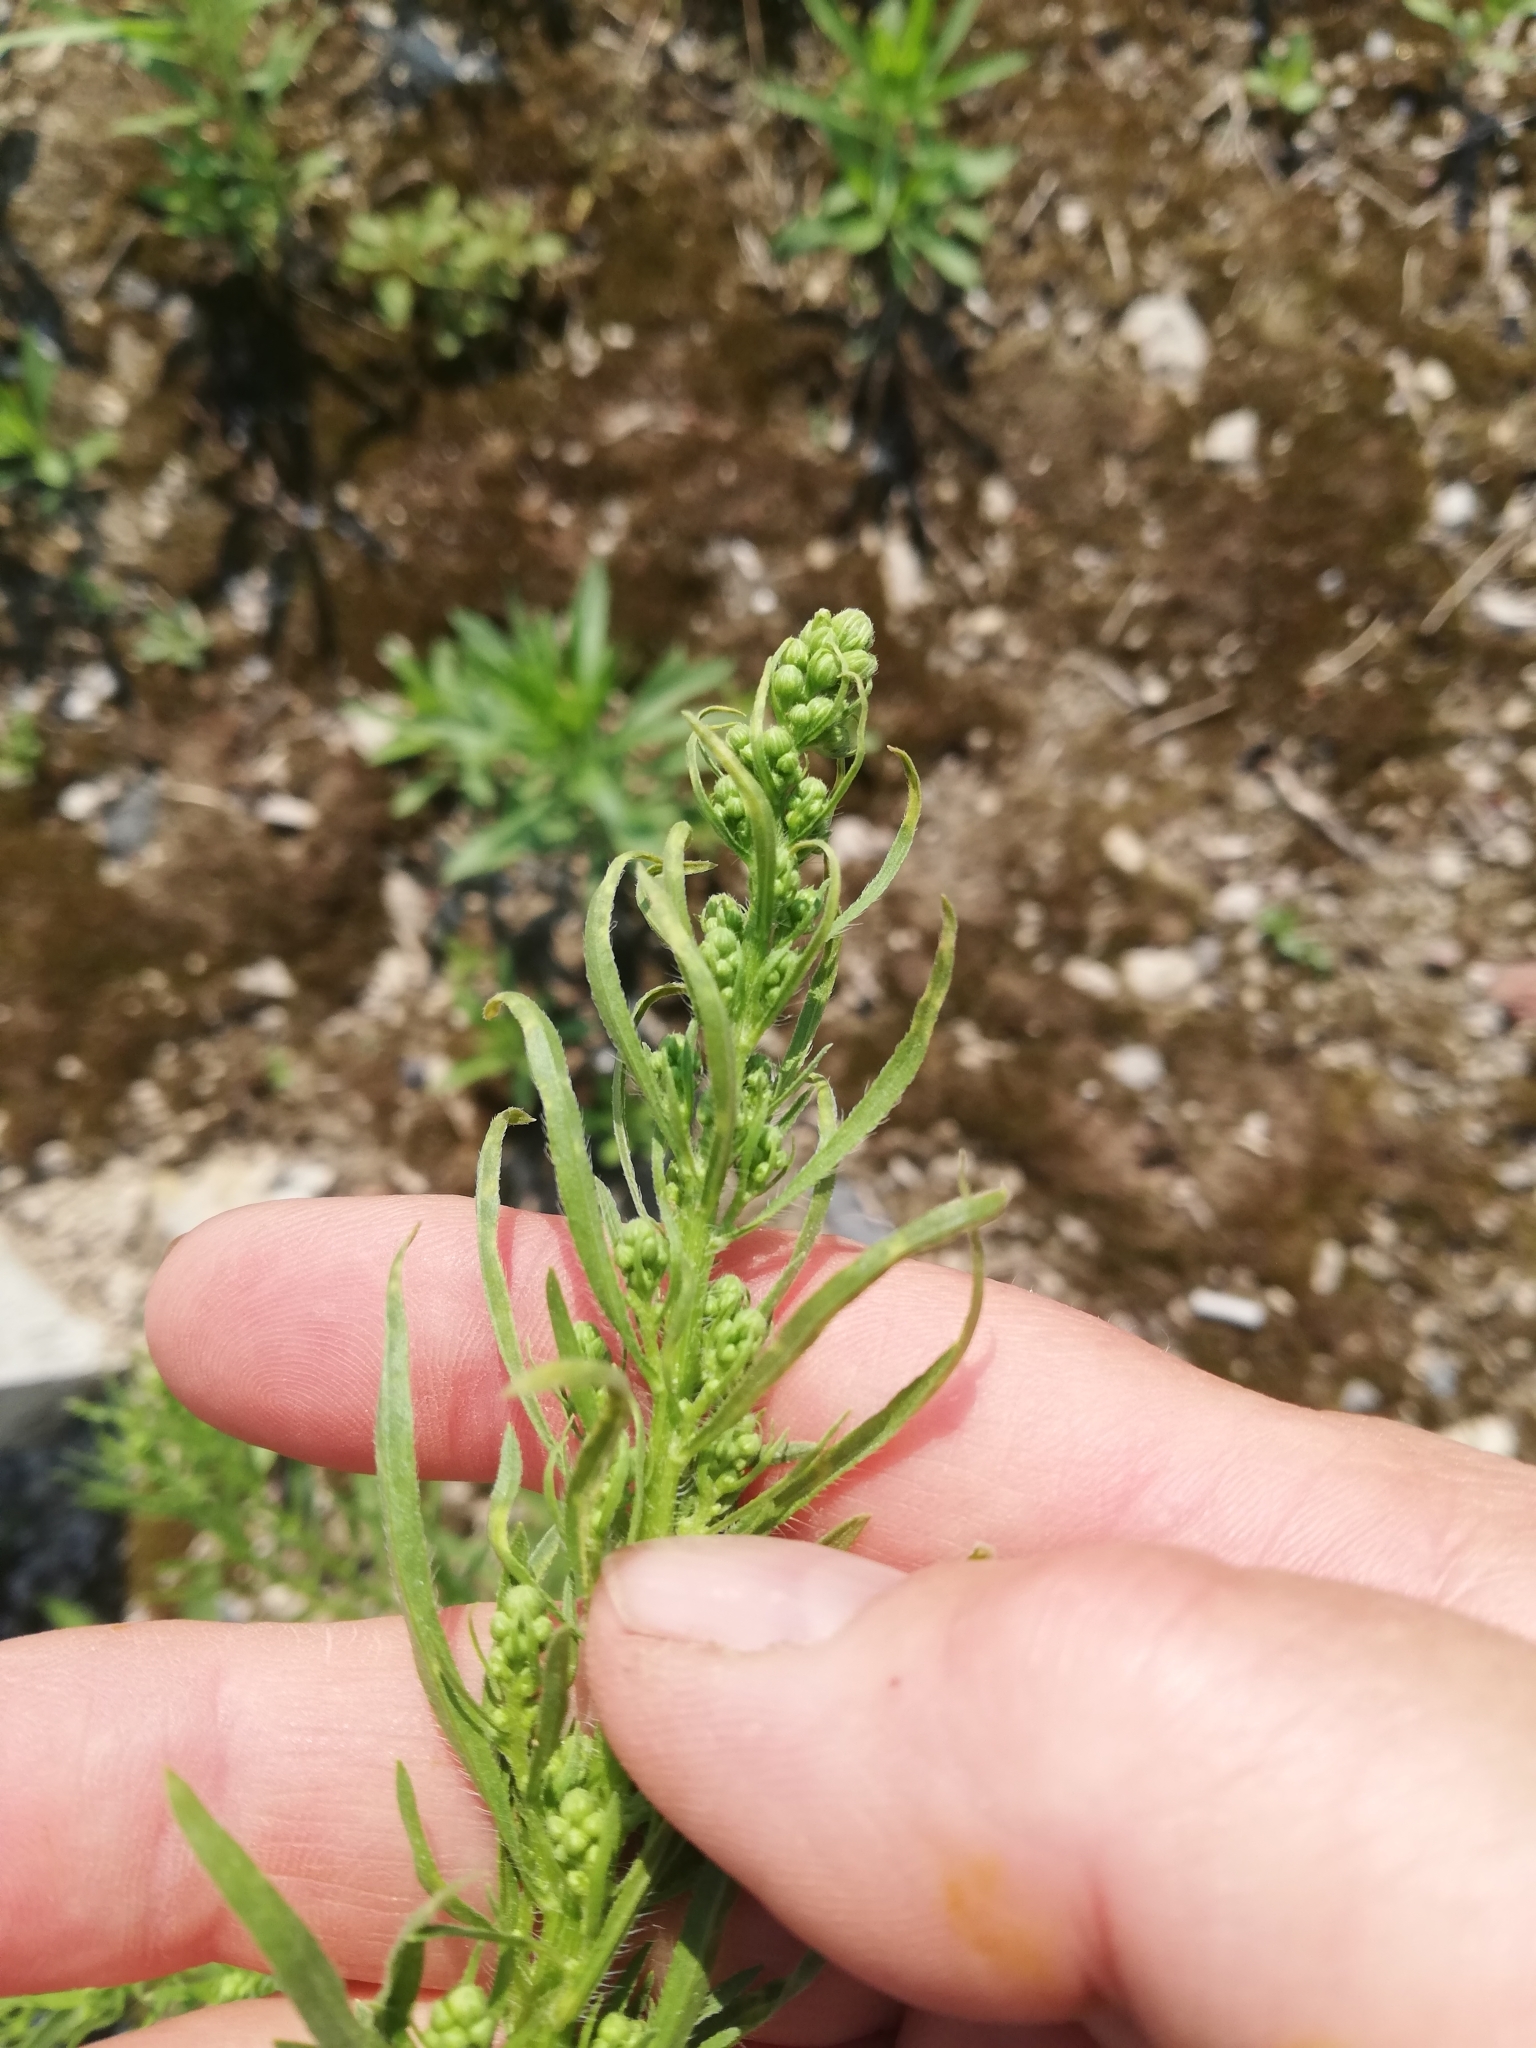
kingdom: Plantae
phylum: Tracheophyta
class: Magnoliopsida
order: Asterales
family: Asteraceae
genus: Erigeron
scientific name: Erigeron canadensis
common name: Canadian fleabane
